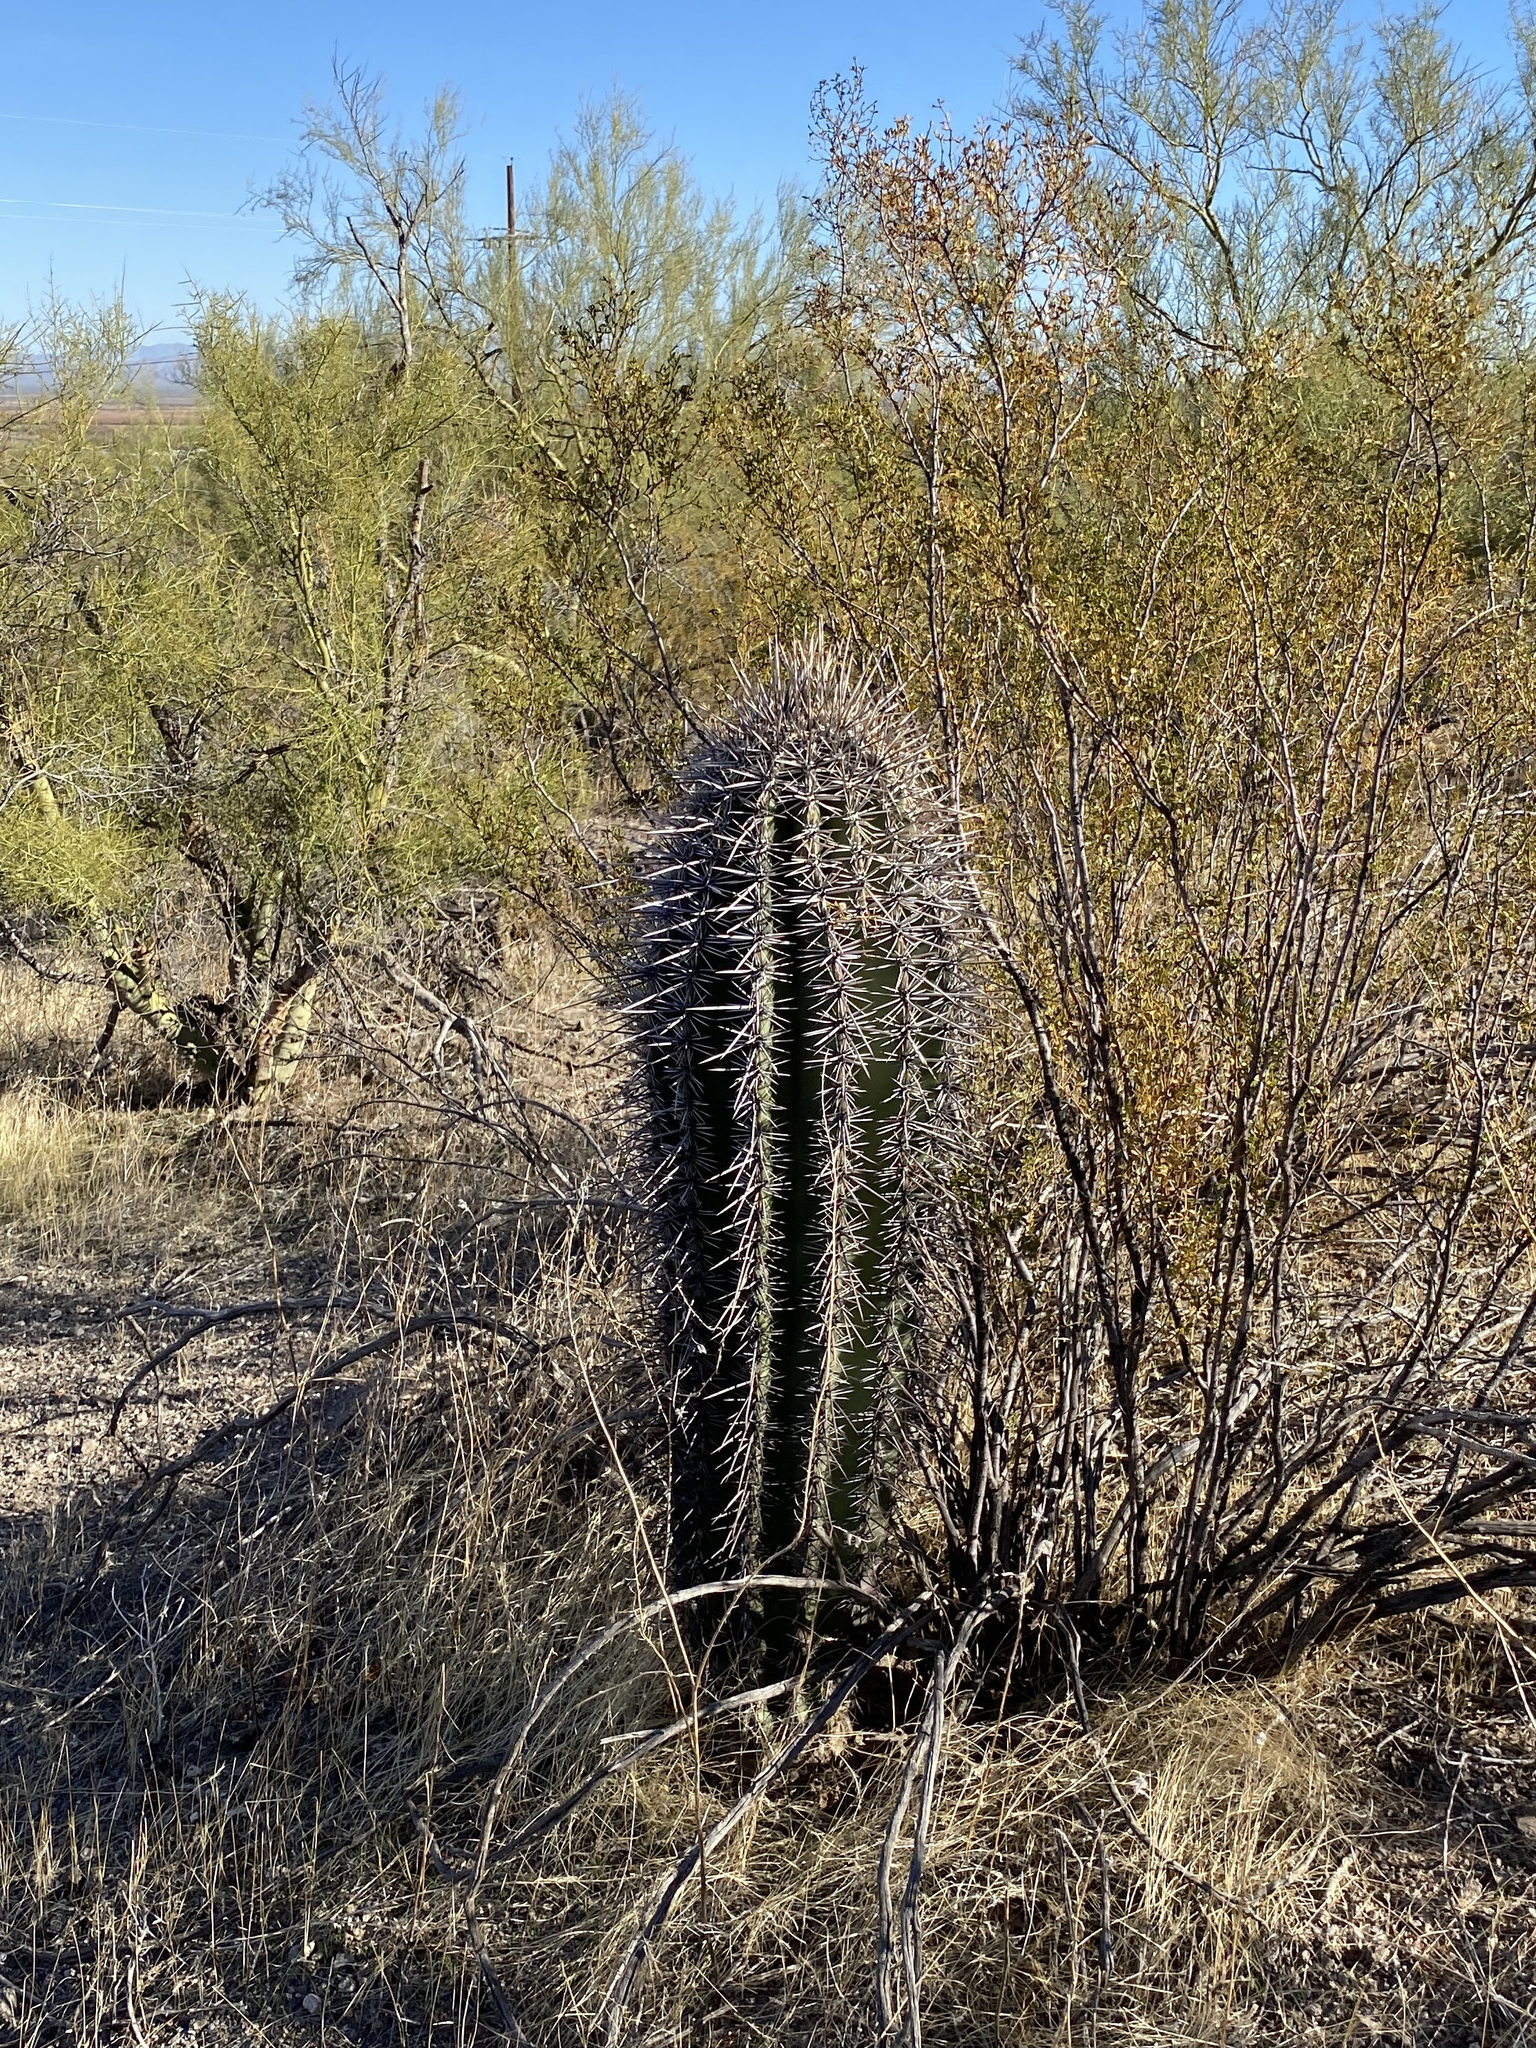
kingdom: Plantae
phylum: Tracheophyta
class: Magnoliopsida
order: Caryophyllales
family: Cactaceae
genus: Carnegiea
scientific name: Carnegiea gigantea
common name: Saguaro
